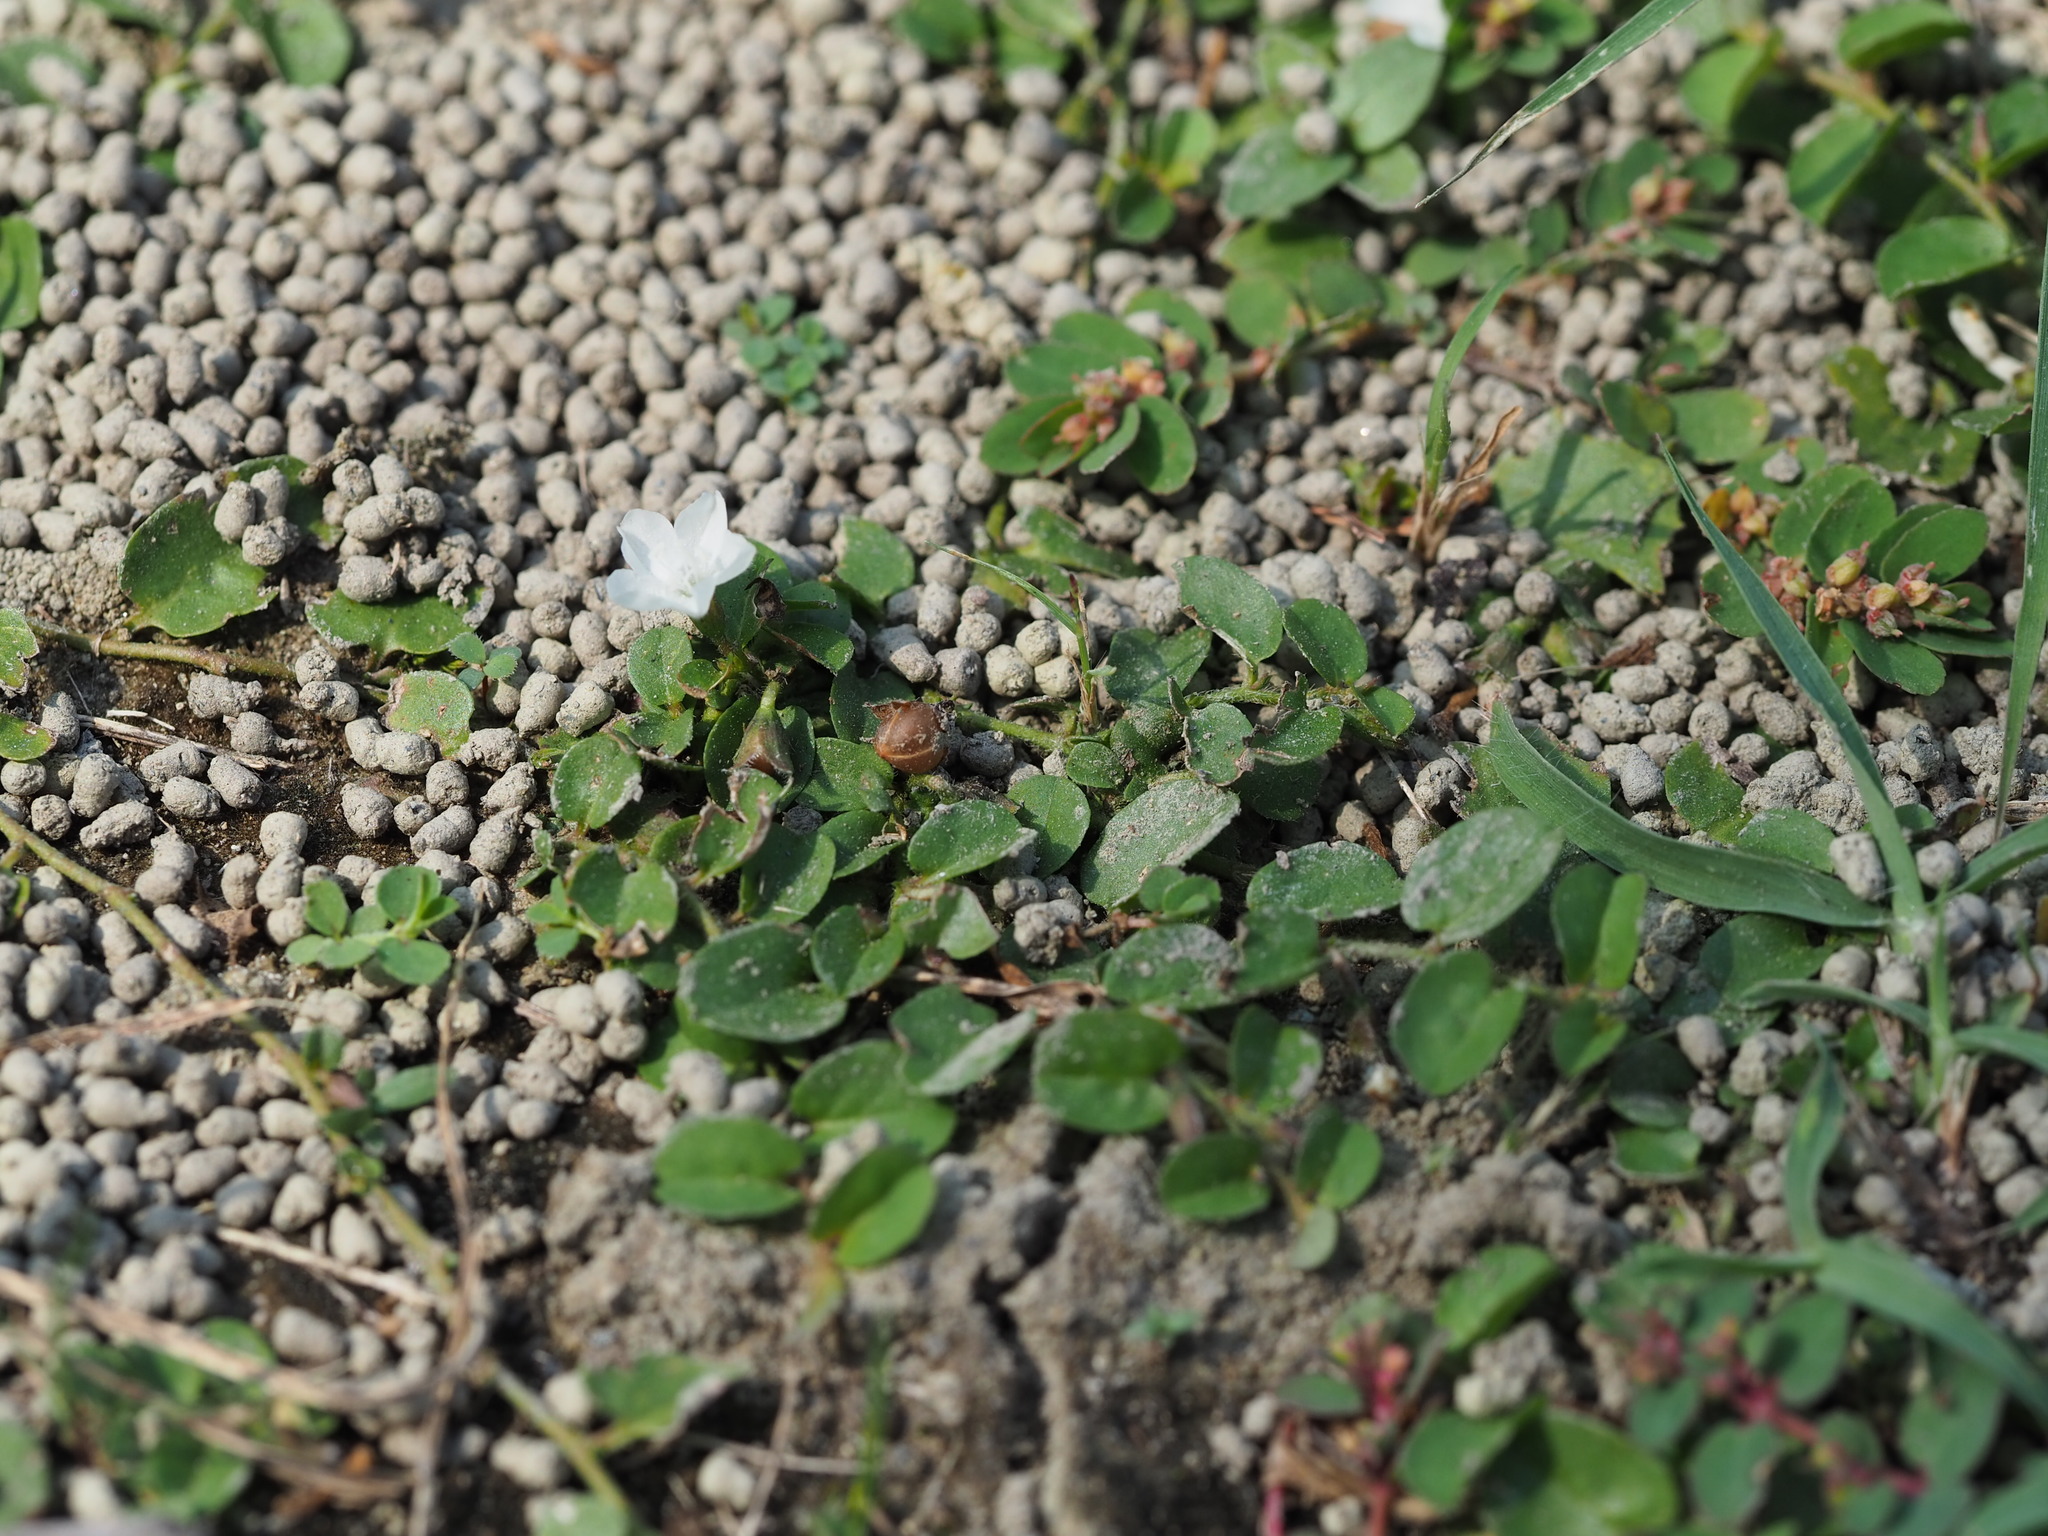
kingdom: Plantae
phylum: Tracheophyta
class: Magnoliopsida
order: Solanales
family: Convolvulaceae
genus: Evolvulus
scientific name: Evolvulus nummularius
